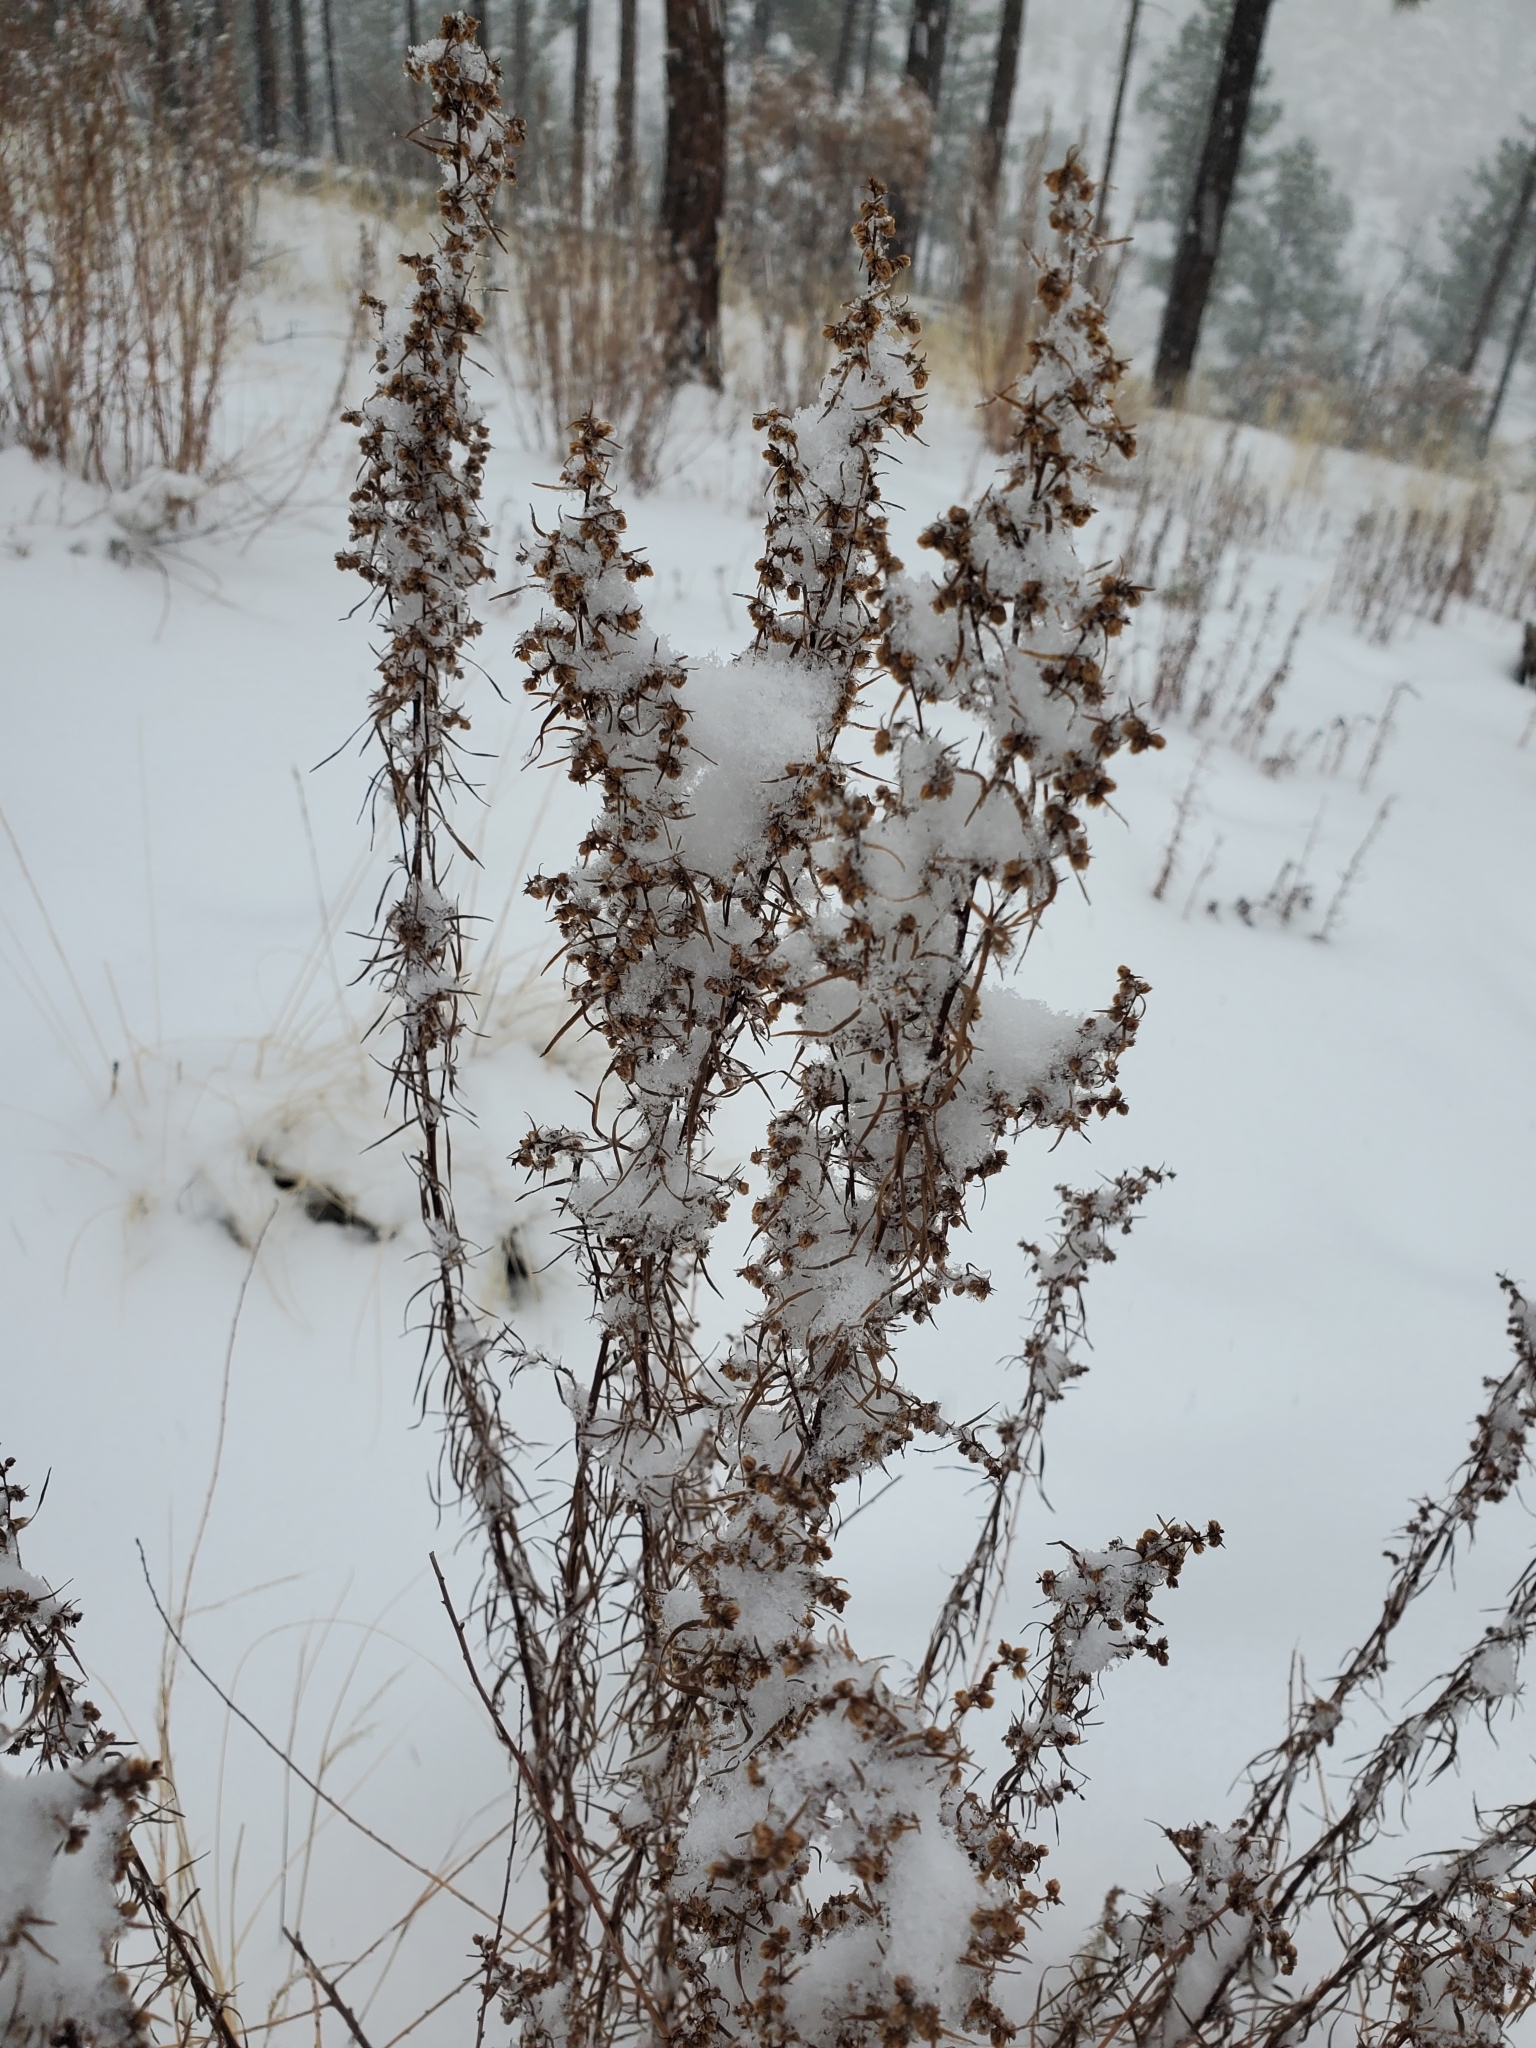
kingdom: Plantae
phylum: Tracheophyta
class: Magnoliopsida
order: Asterales
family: Asteraceae
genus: Artemisia
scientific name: Artemisia dracunculus
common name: Tarragon
